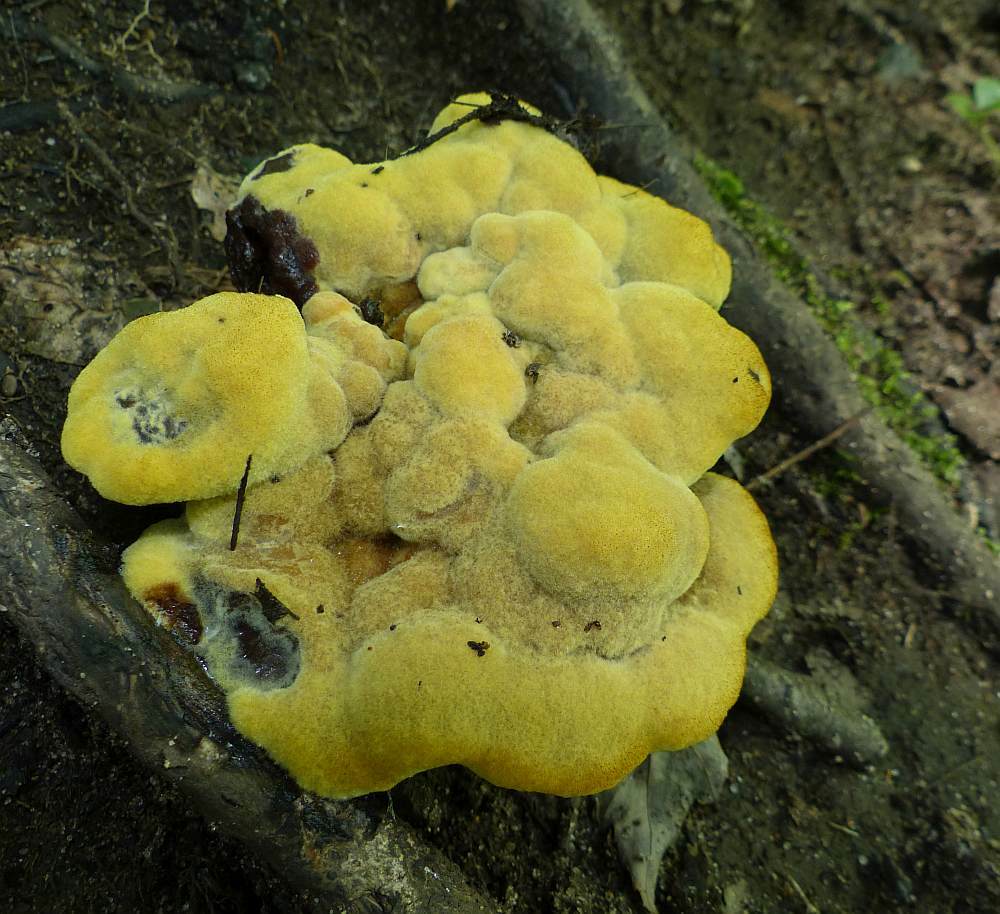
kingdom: Fungi
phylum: Basidiomycota
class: Agaricomycetes
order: Polyporales
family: Laetiporaceae
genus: Phaeolus
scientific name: Phaeolus schweinitzii
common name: Dyer's mazegill
